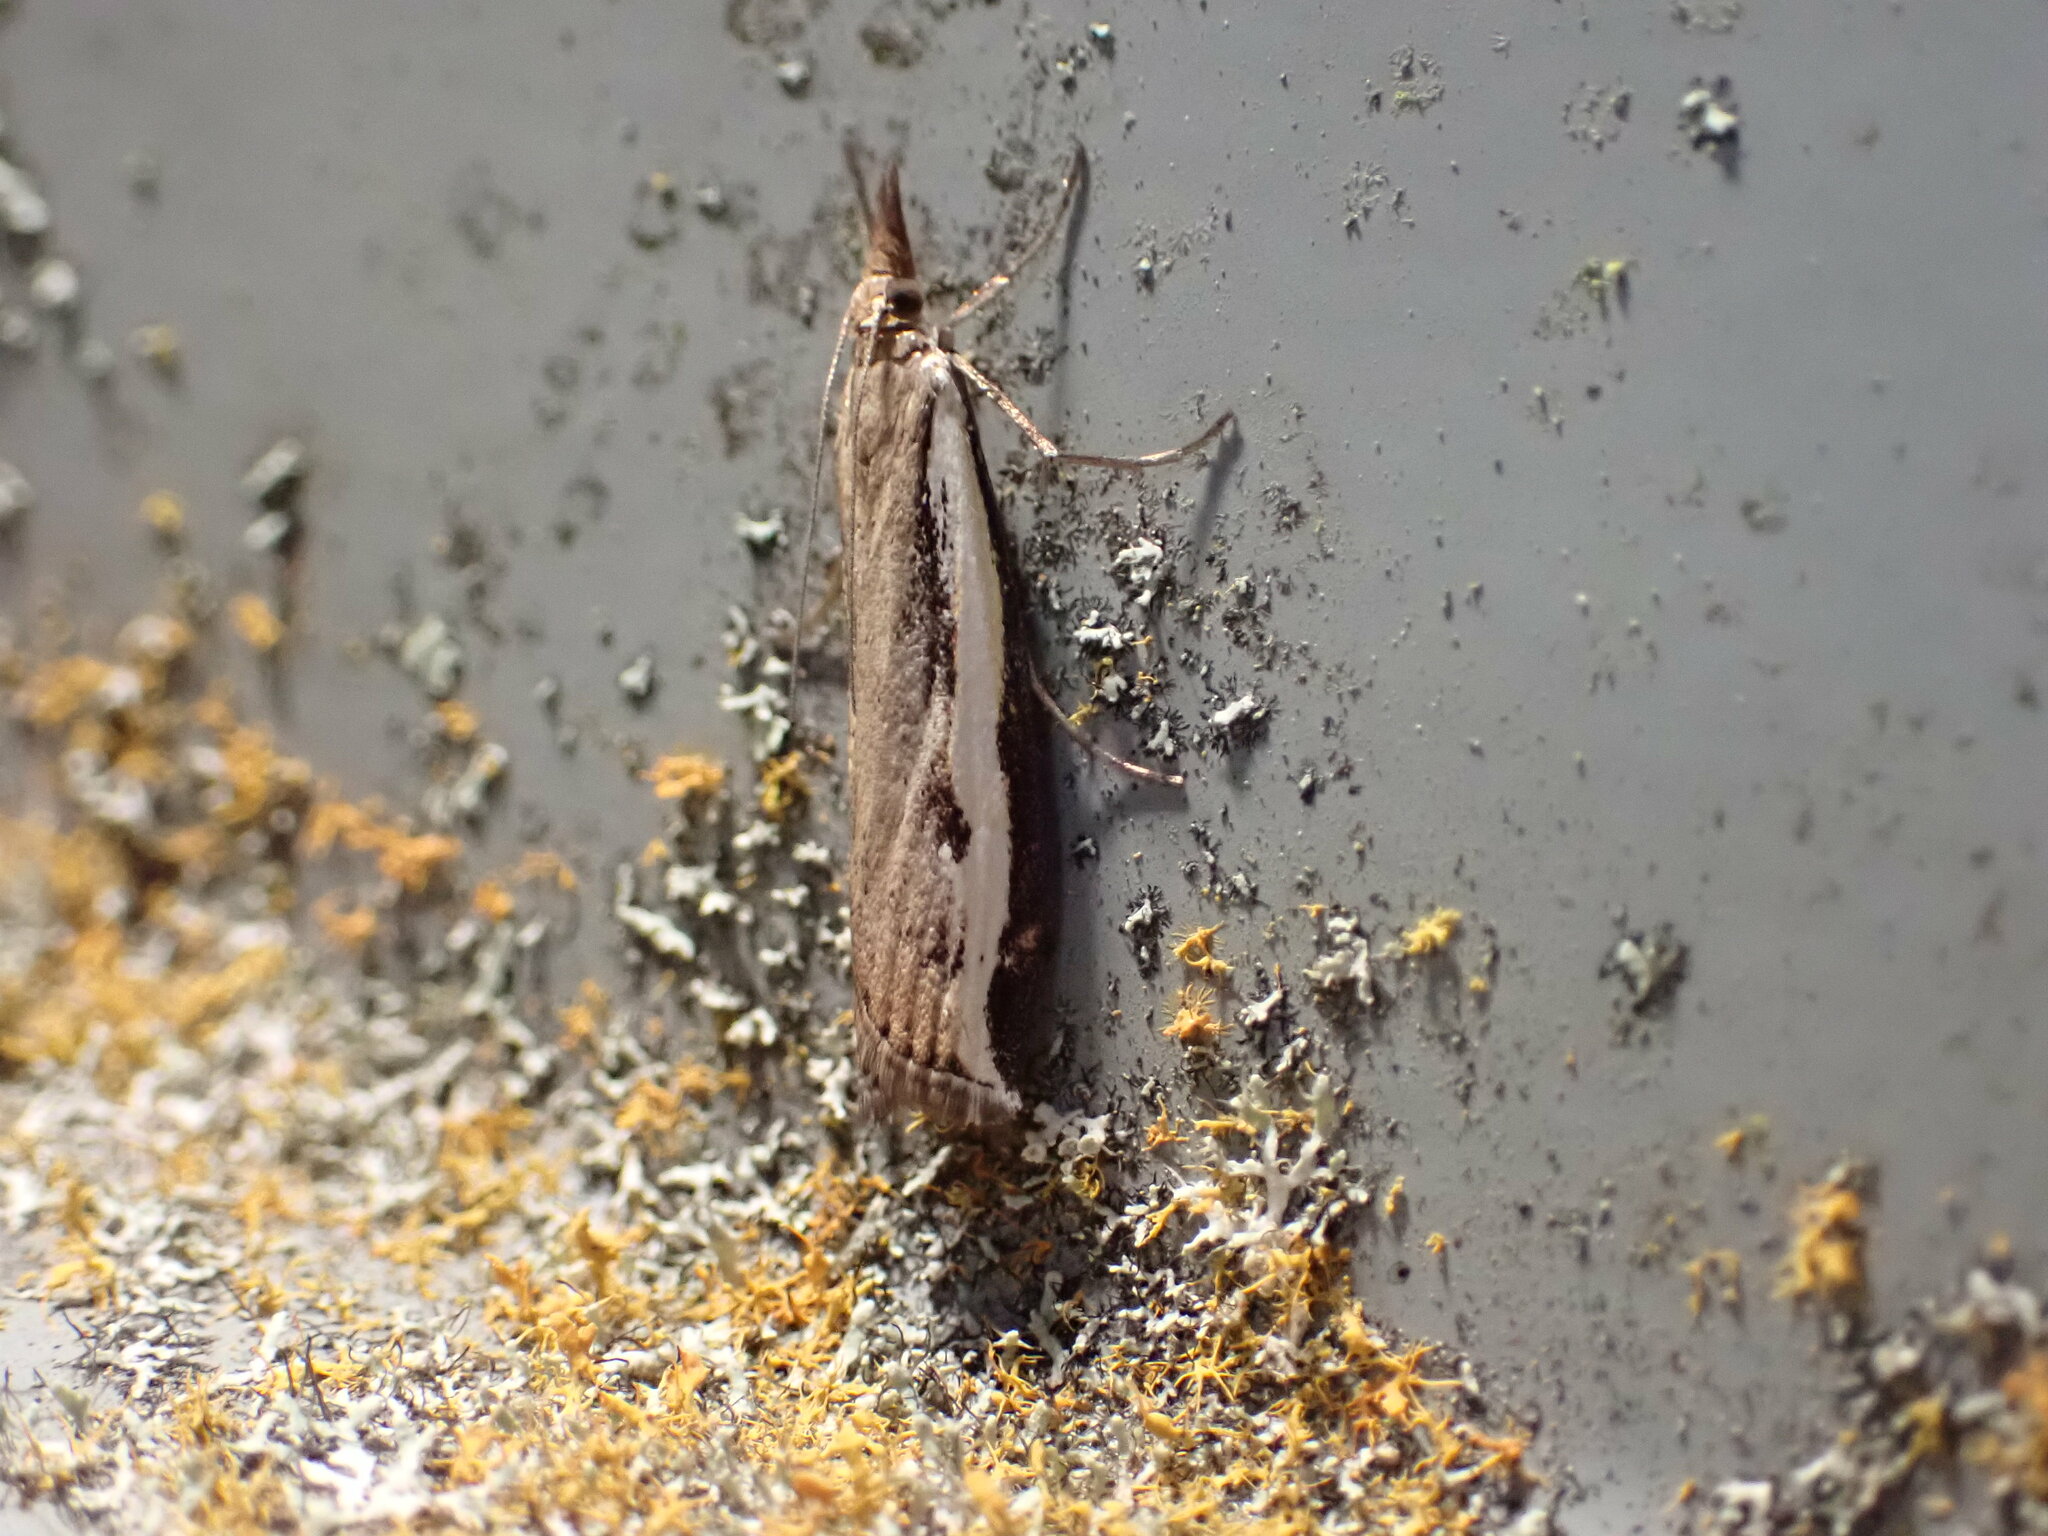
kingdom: Animalia
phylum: Arthropoda
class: Insecta
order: Lepidoptera
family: Crambidae
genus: Orocrambus
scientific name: Orocrambus flexuosellus
